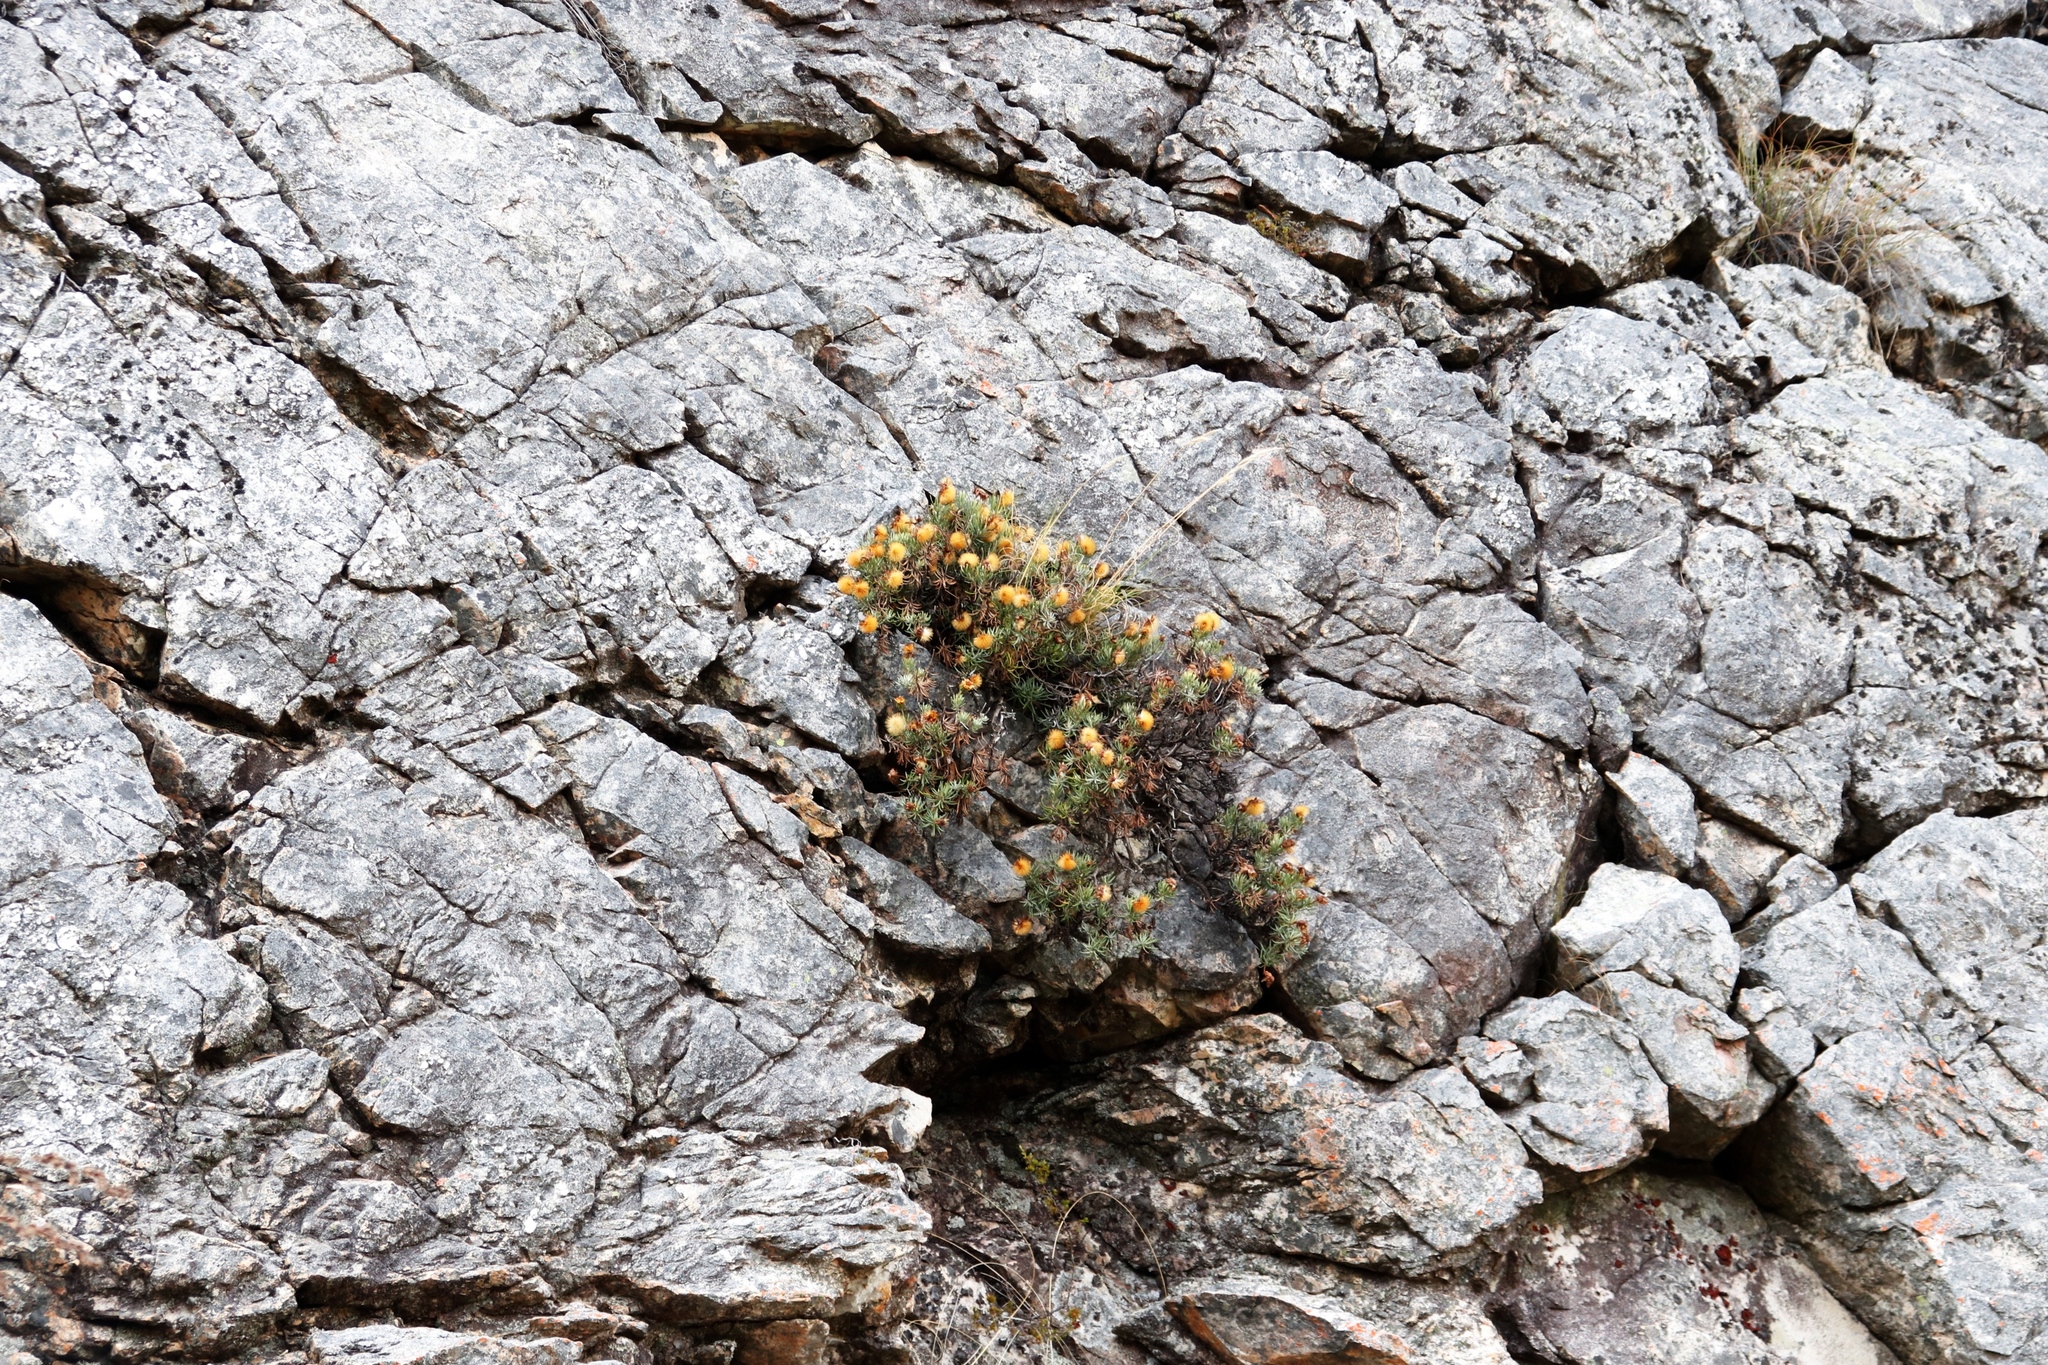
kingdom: Plantae
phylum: Tracheophyta
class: Magnoliopsida
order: Asterales
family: Asteraceae
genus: Heterolepis
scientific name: Heterolepis aliena
